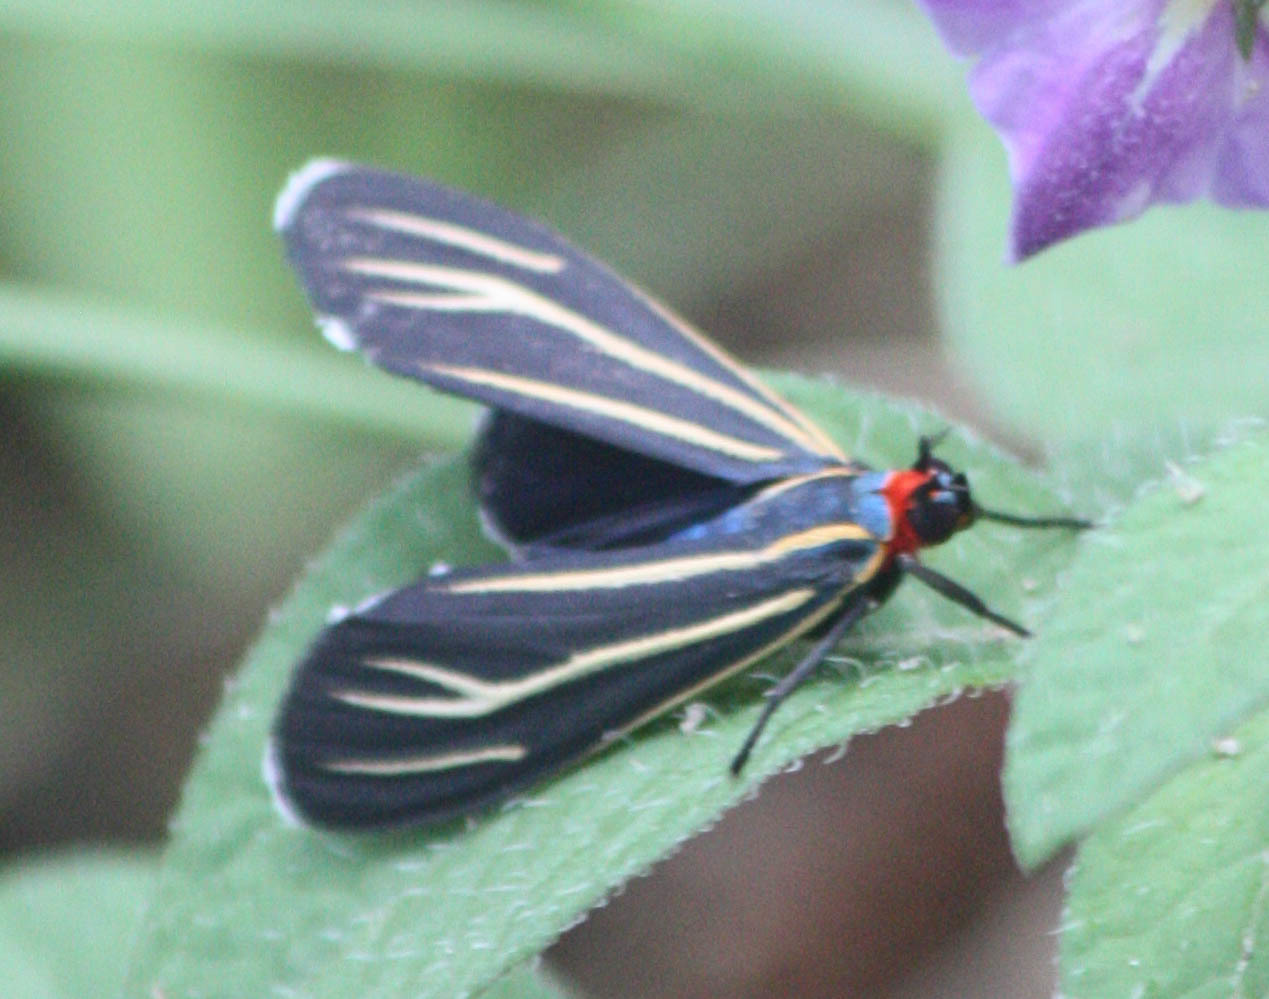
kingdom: Animalia
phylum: Arthropoda
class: Insecta
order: Lepidoptera
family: Erebidae
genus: Ctenucha
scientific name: Ctenucha venosa
